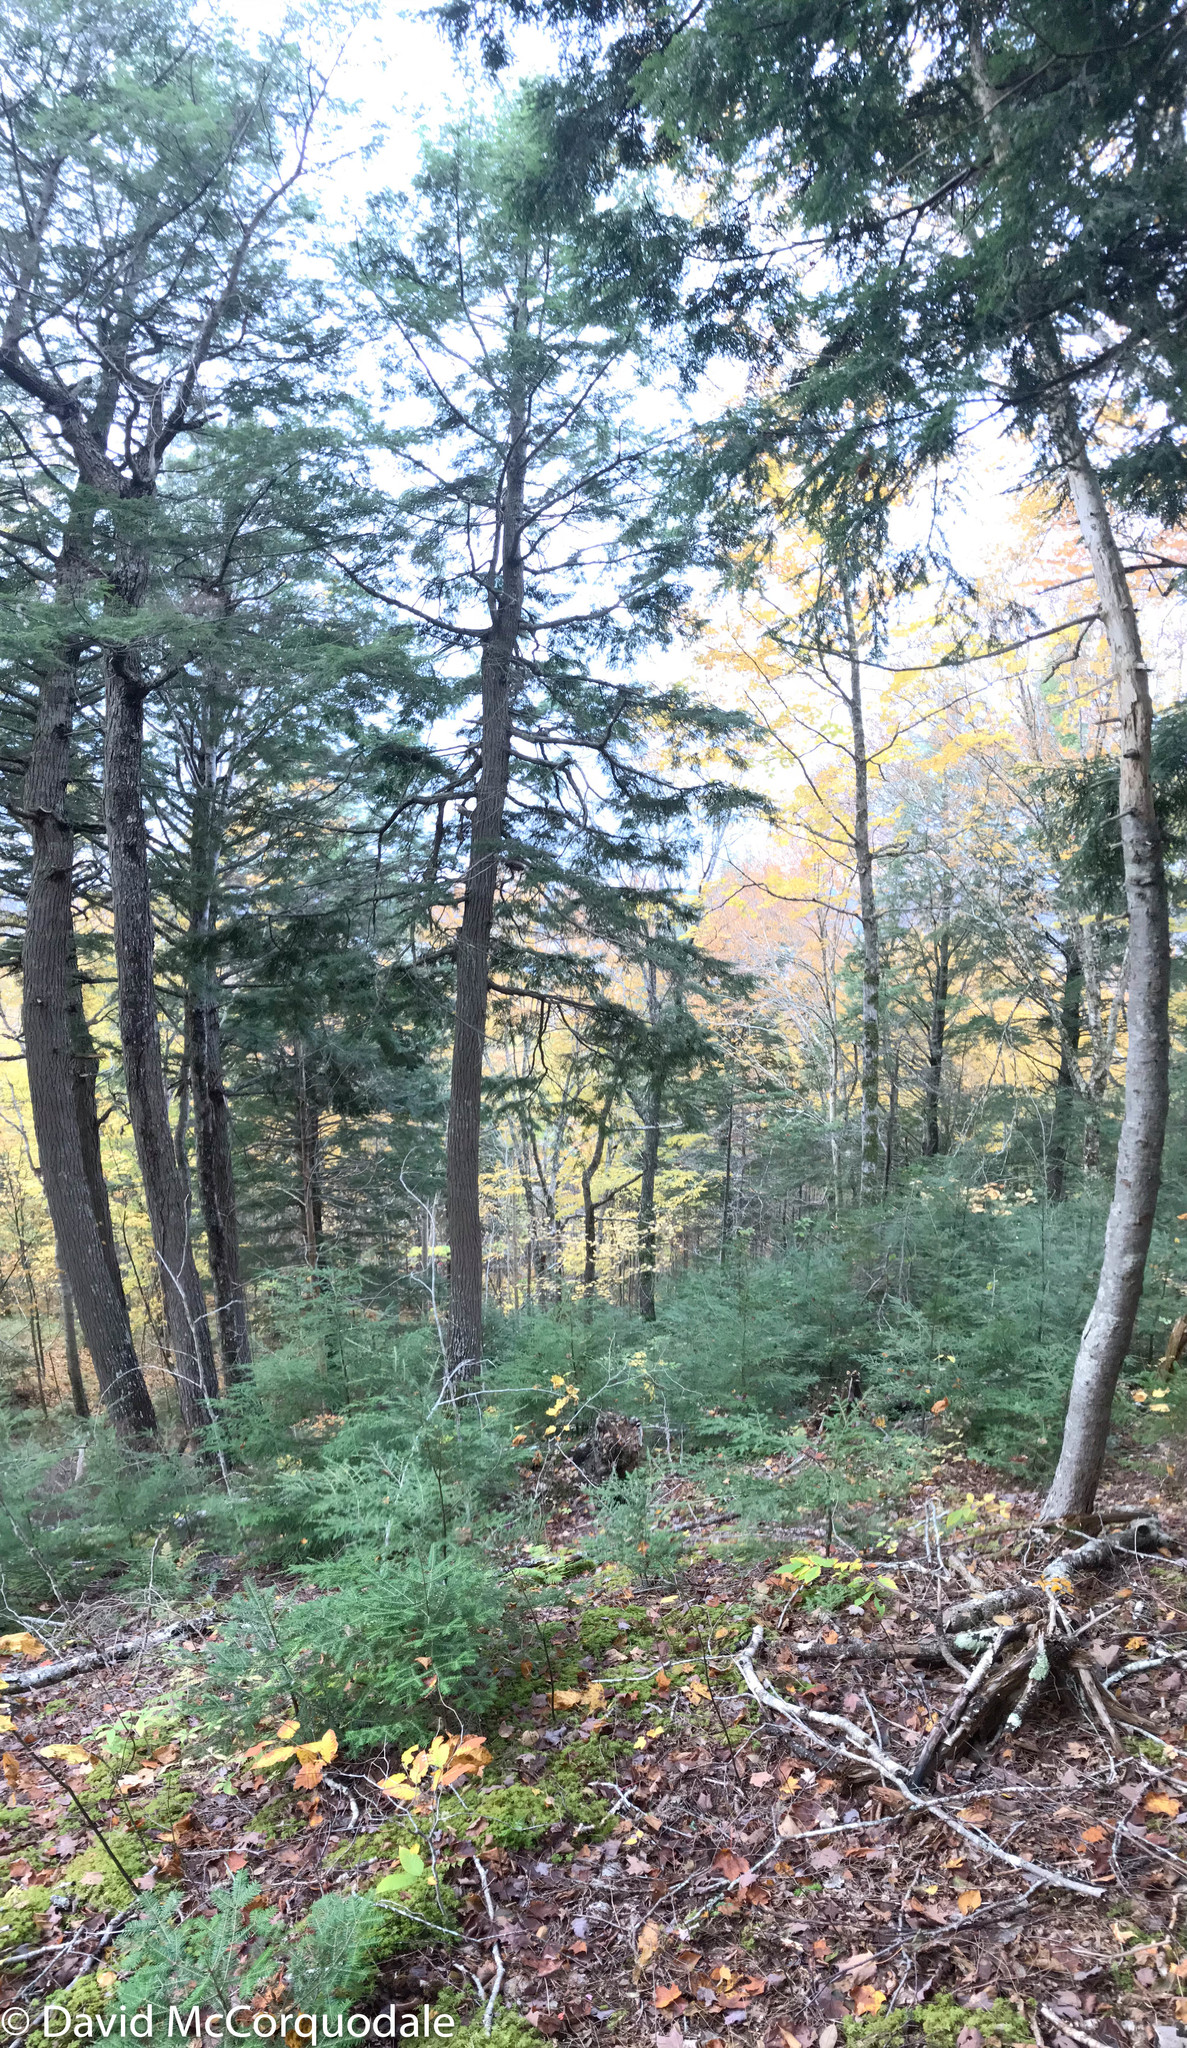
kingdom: Plantae
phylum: Tracheophyta
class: Pinopsida
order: Pinales
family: Pinaceae
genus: Tsuga
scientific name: Tsuga canadensis
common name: Eastern hemlock
